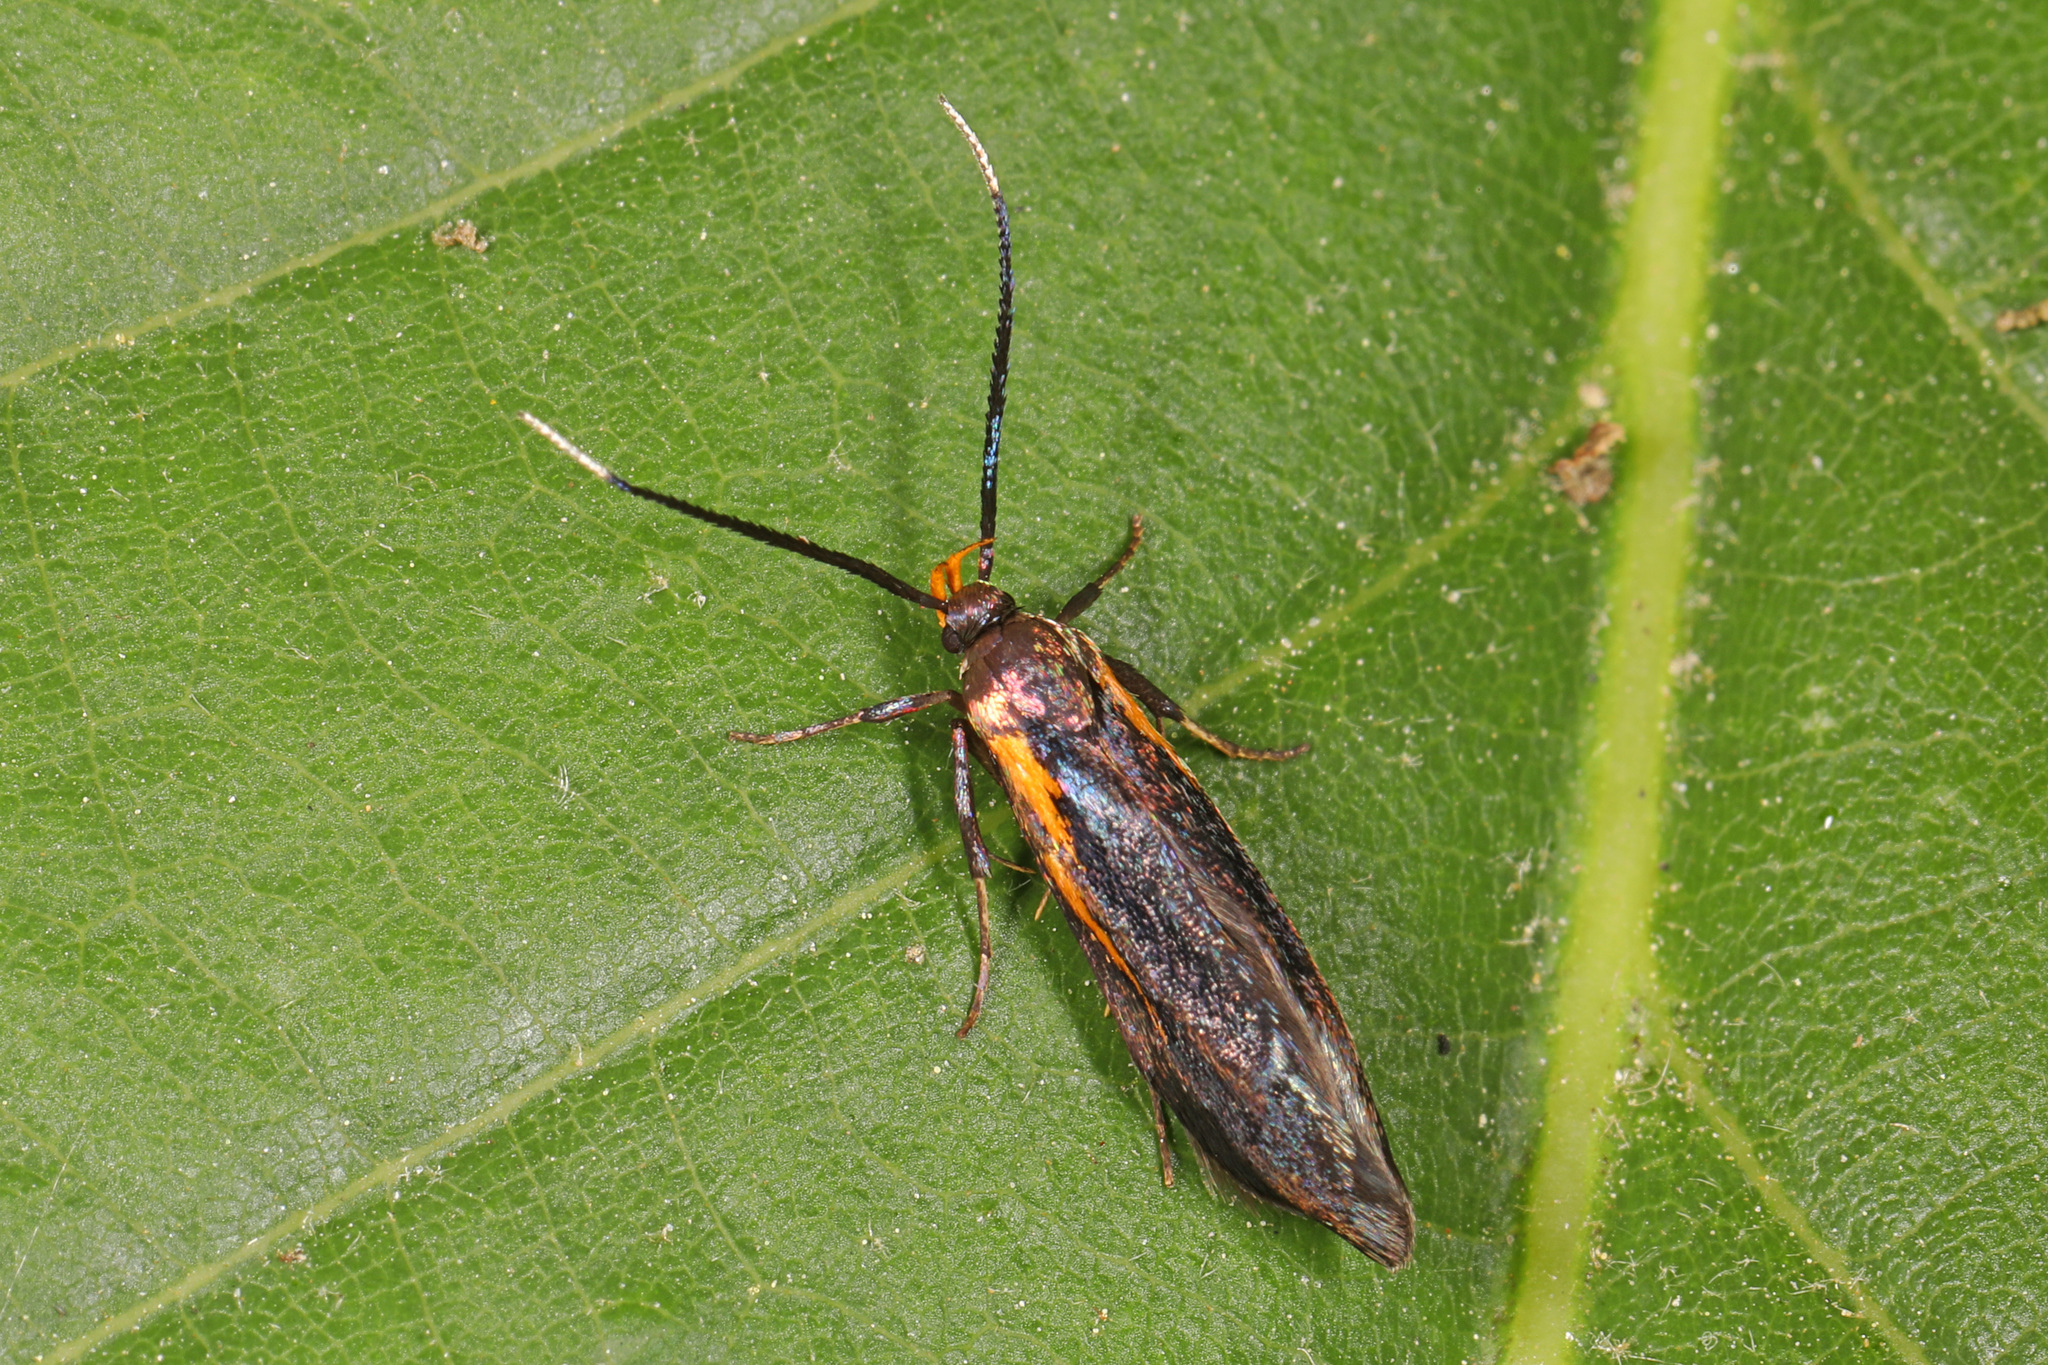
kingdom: Animalia
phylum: Arthropoda
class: Insecta
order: Lepidoptera
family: Oecophoridae
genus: Mathildana
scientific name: Mathildana newmanella
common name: Newman's mathildana moth
